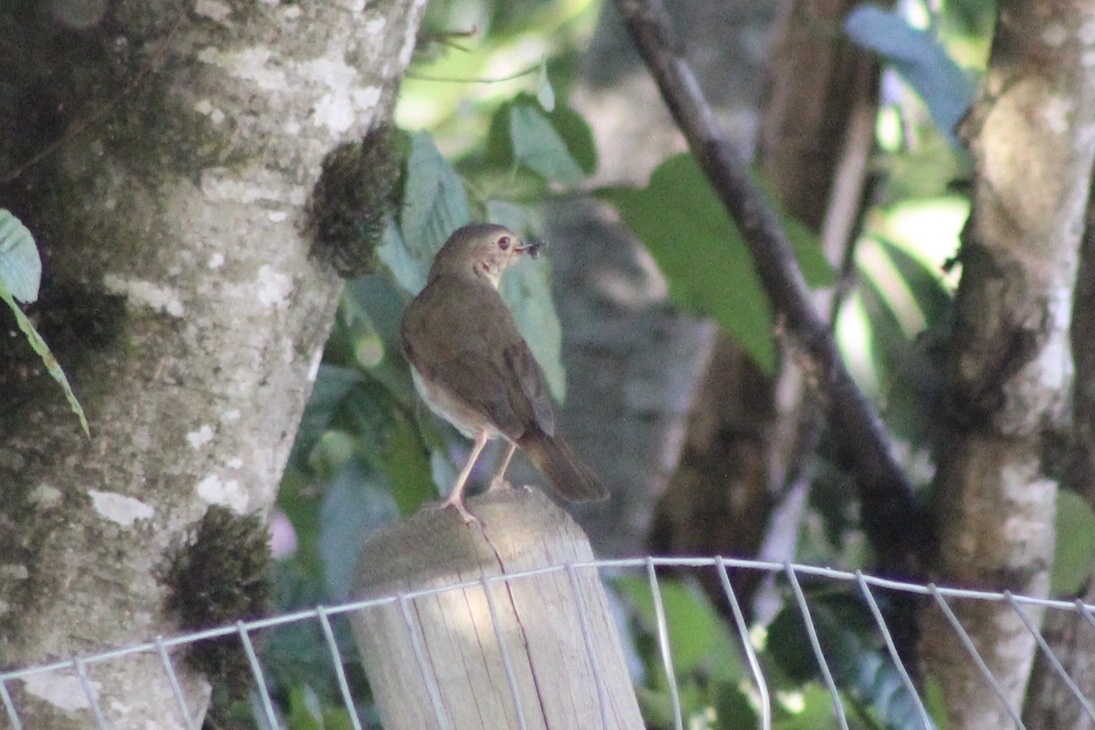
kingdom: Animalia
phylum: Chordata
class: Aves
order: Passeriformes
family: Turdidae
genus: Catharus
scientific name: Catharus ustulatus
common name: Swainson's thrush
